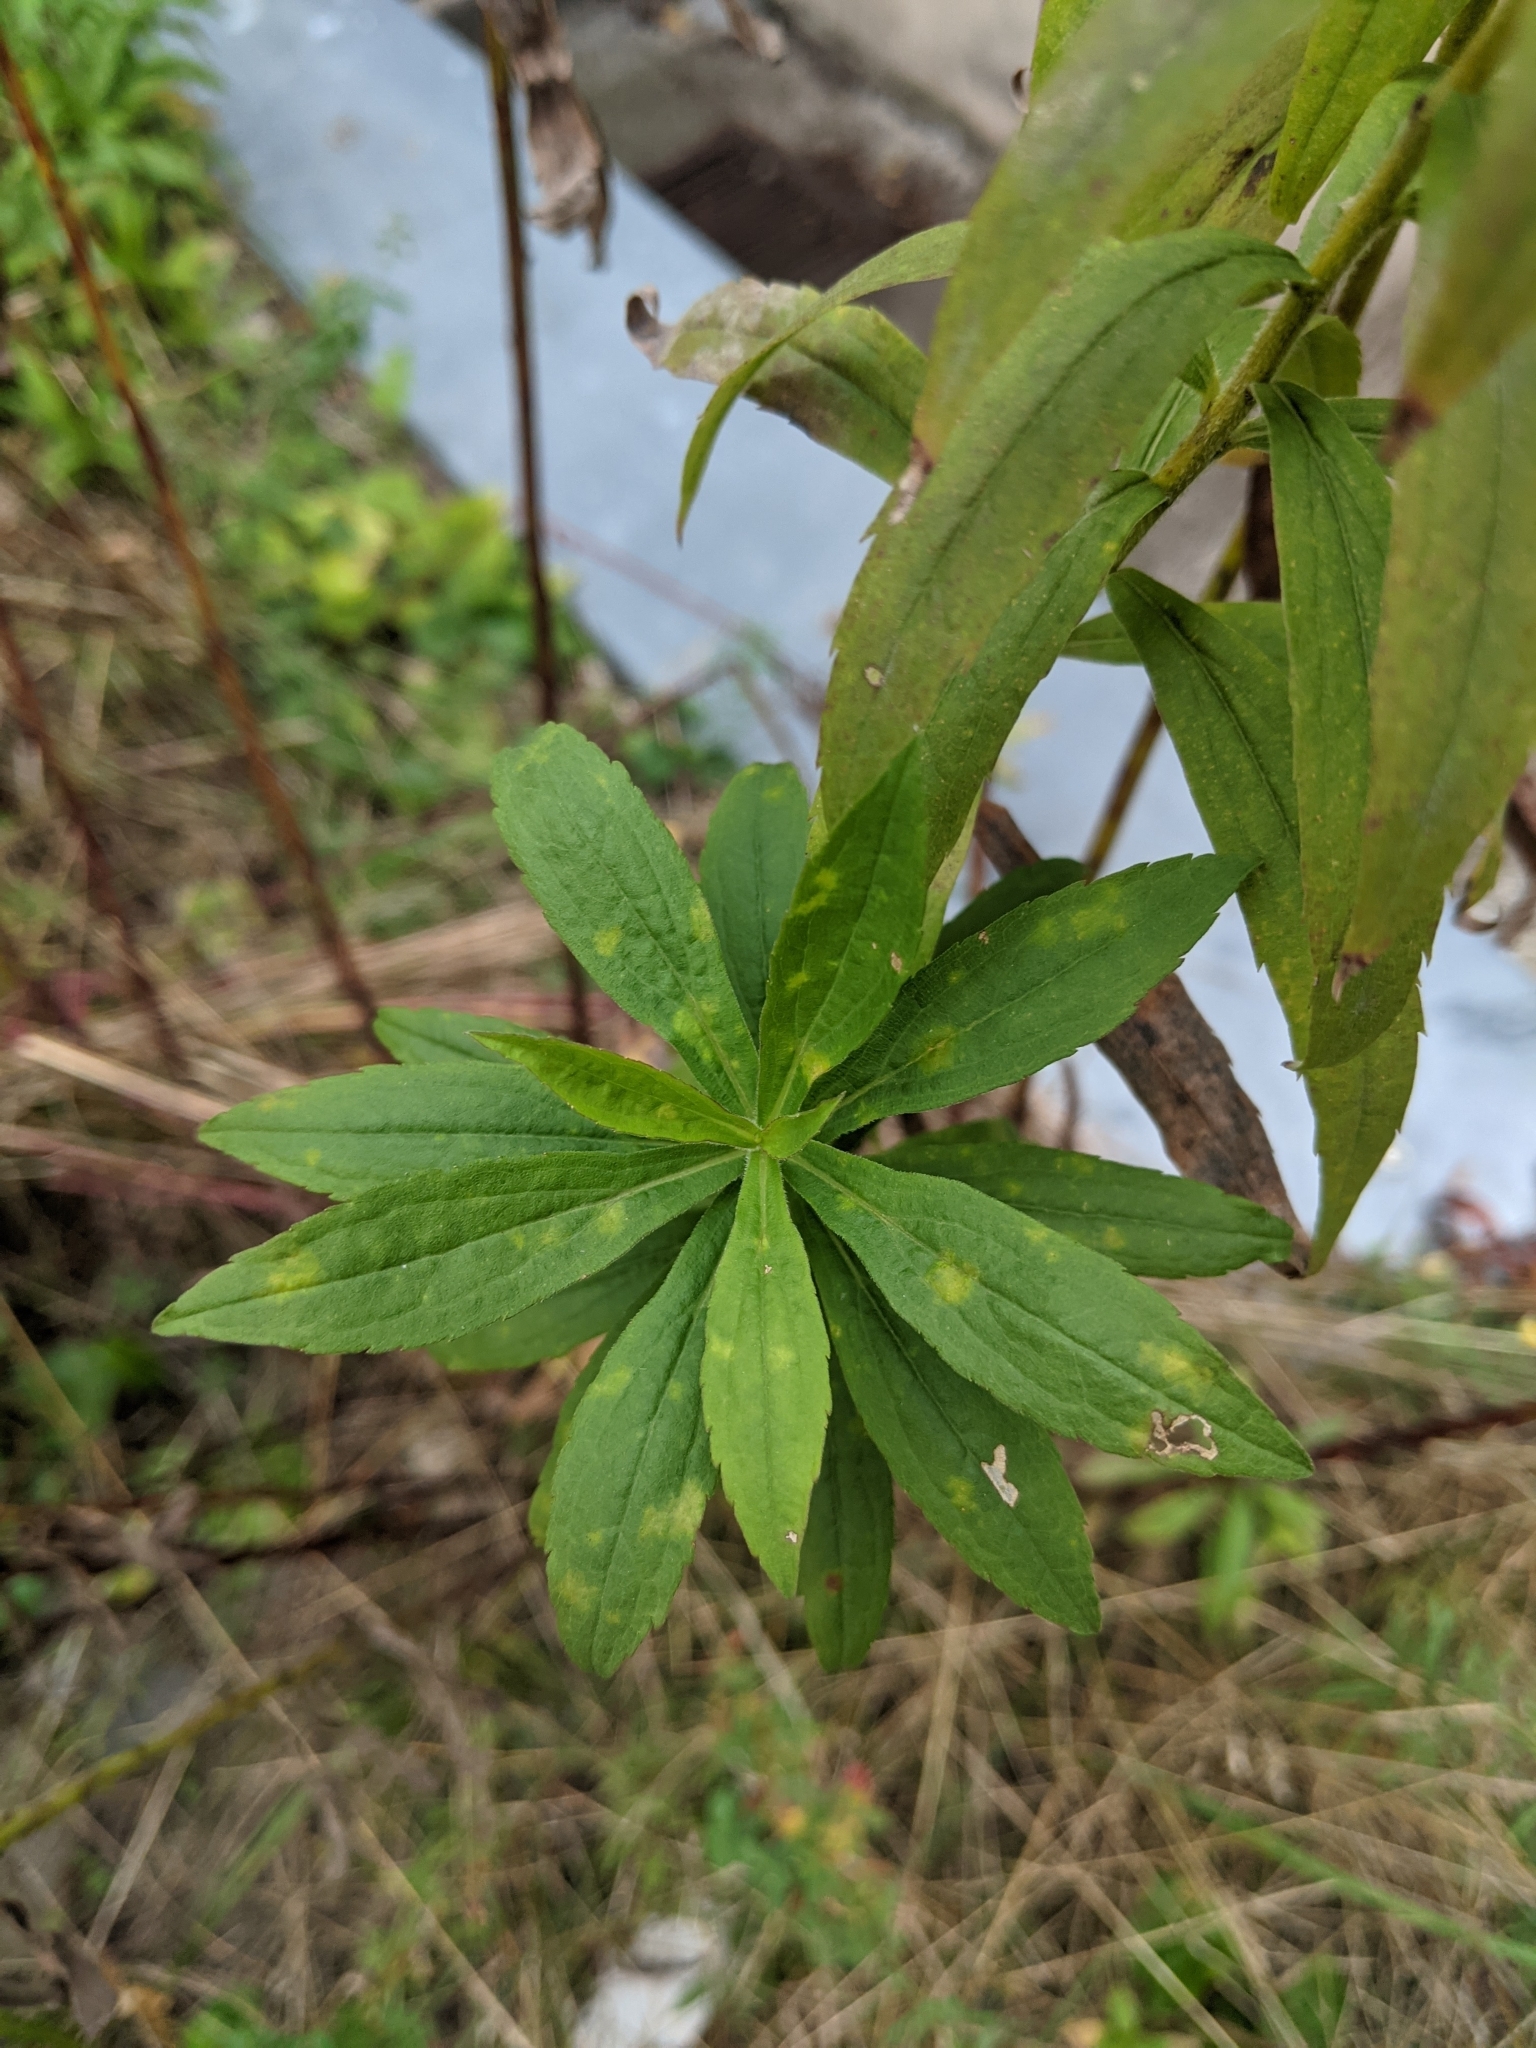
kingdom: Plantae
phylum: Tracheophyta
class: Magnoliopsida
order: Asterales
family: Asteraceae
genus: Solidago
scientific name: Solidago canadensis
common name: Canada goldenrod
